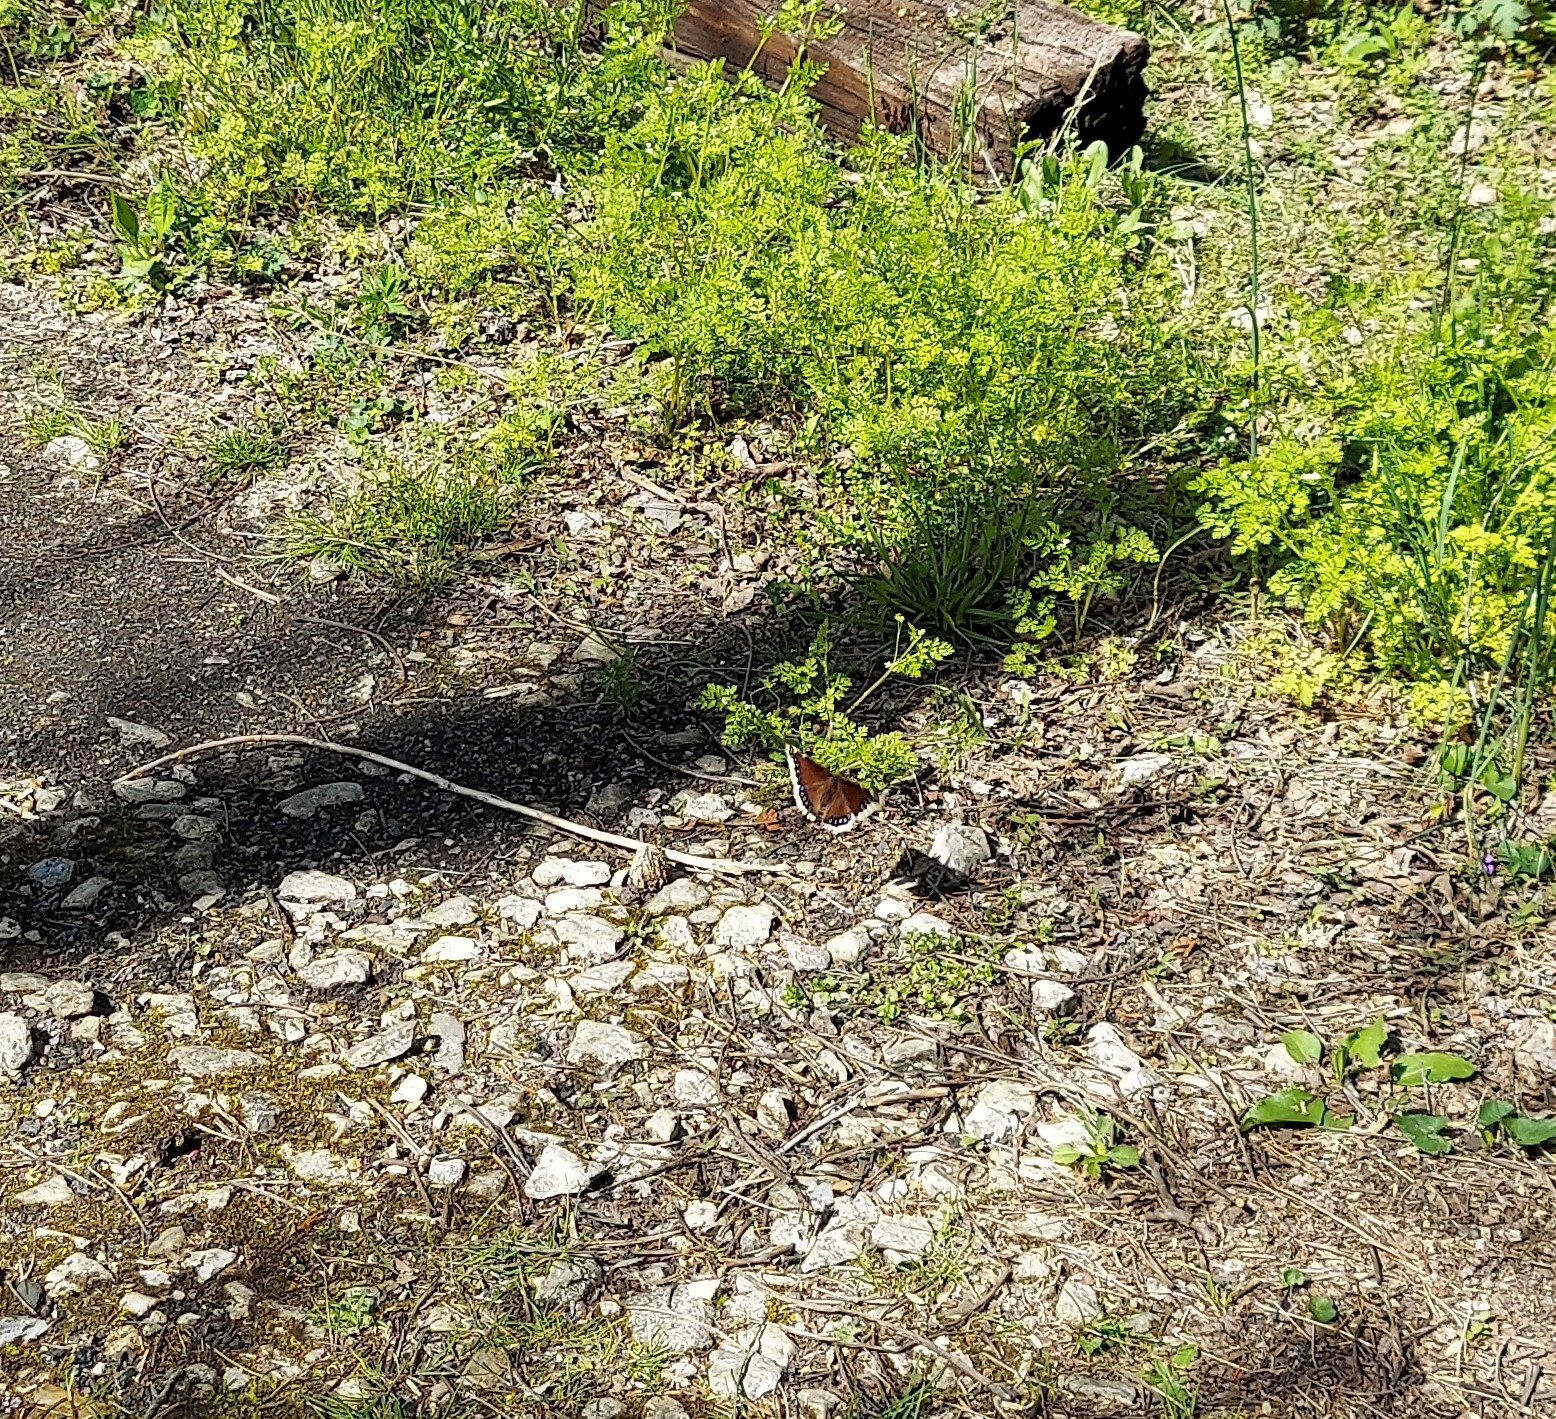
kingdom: Animalia
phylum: Arthropoda
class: Insecta
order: Lepidoptera
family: Nymphalidae
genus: Nymphalis
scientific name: Nymphalis antiopa
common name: Camberwell beauty
